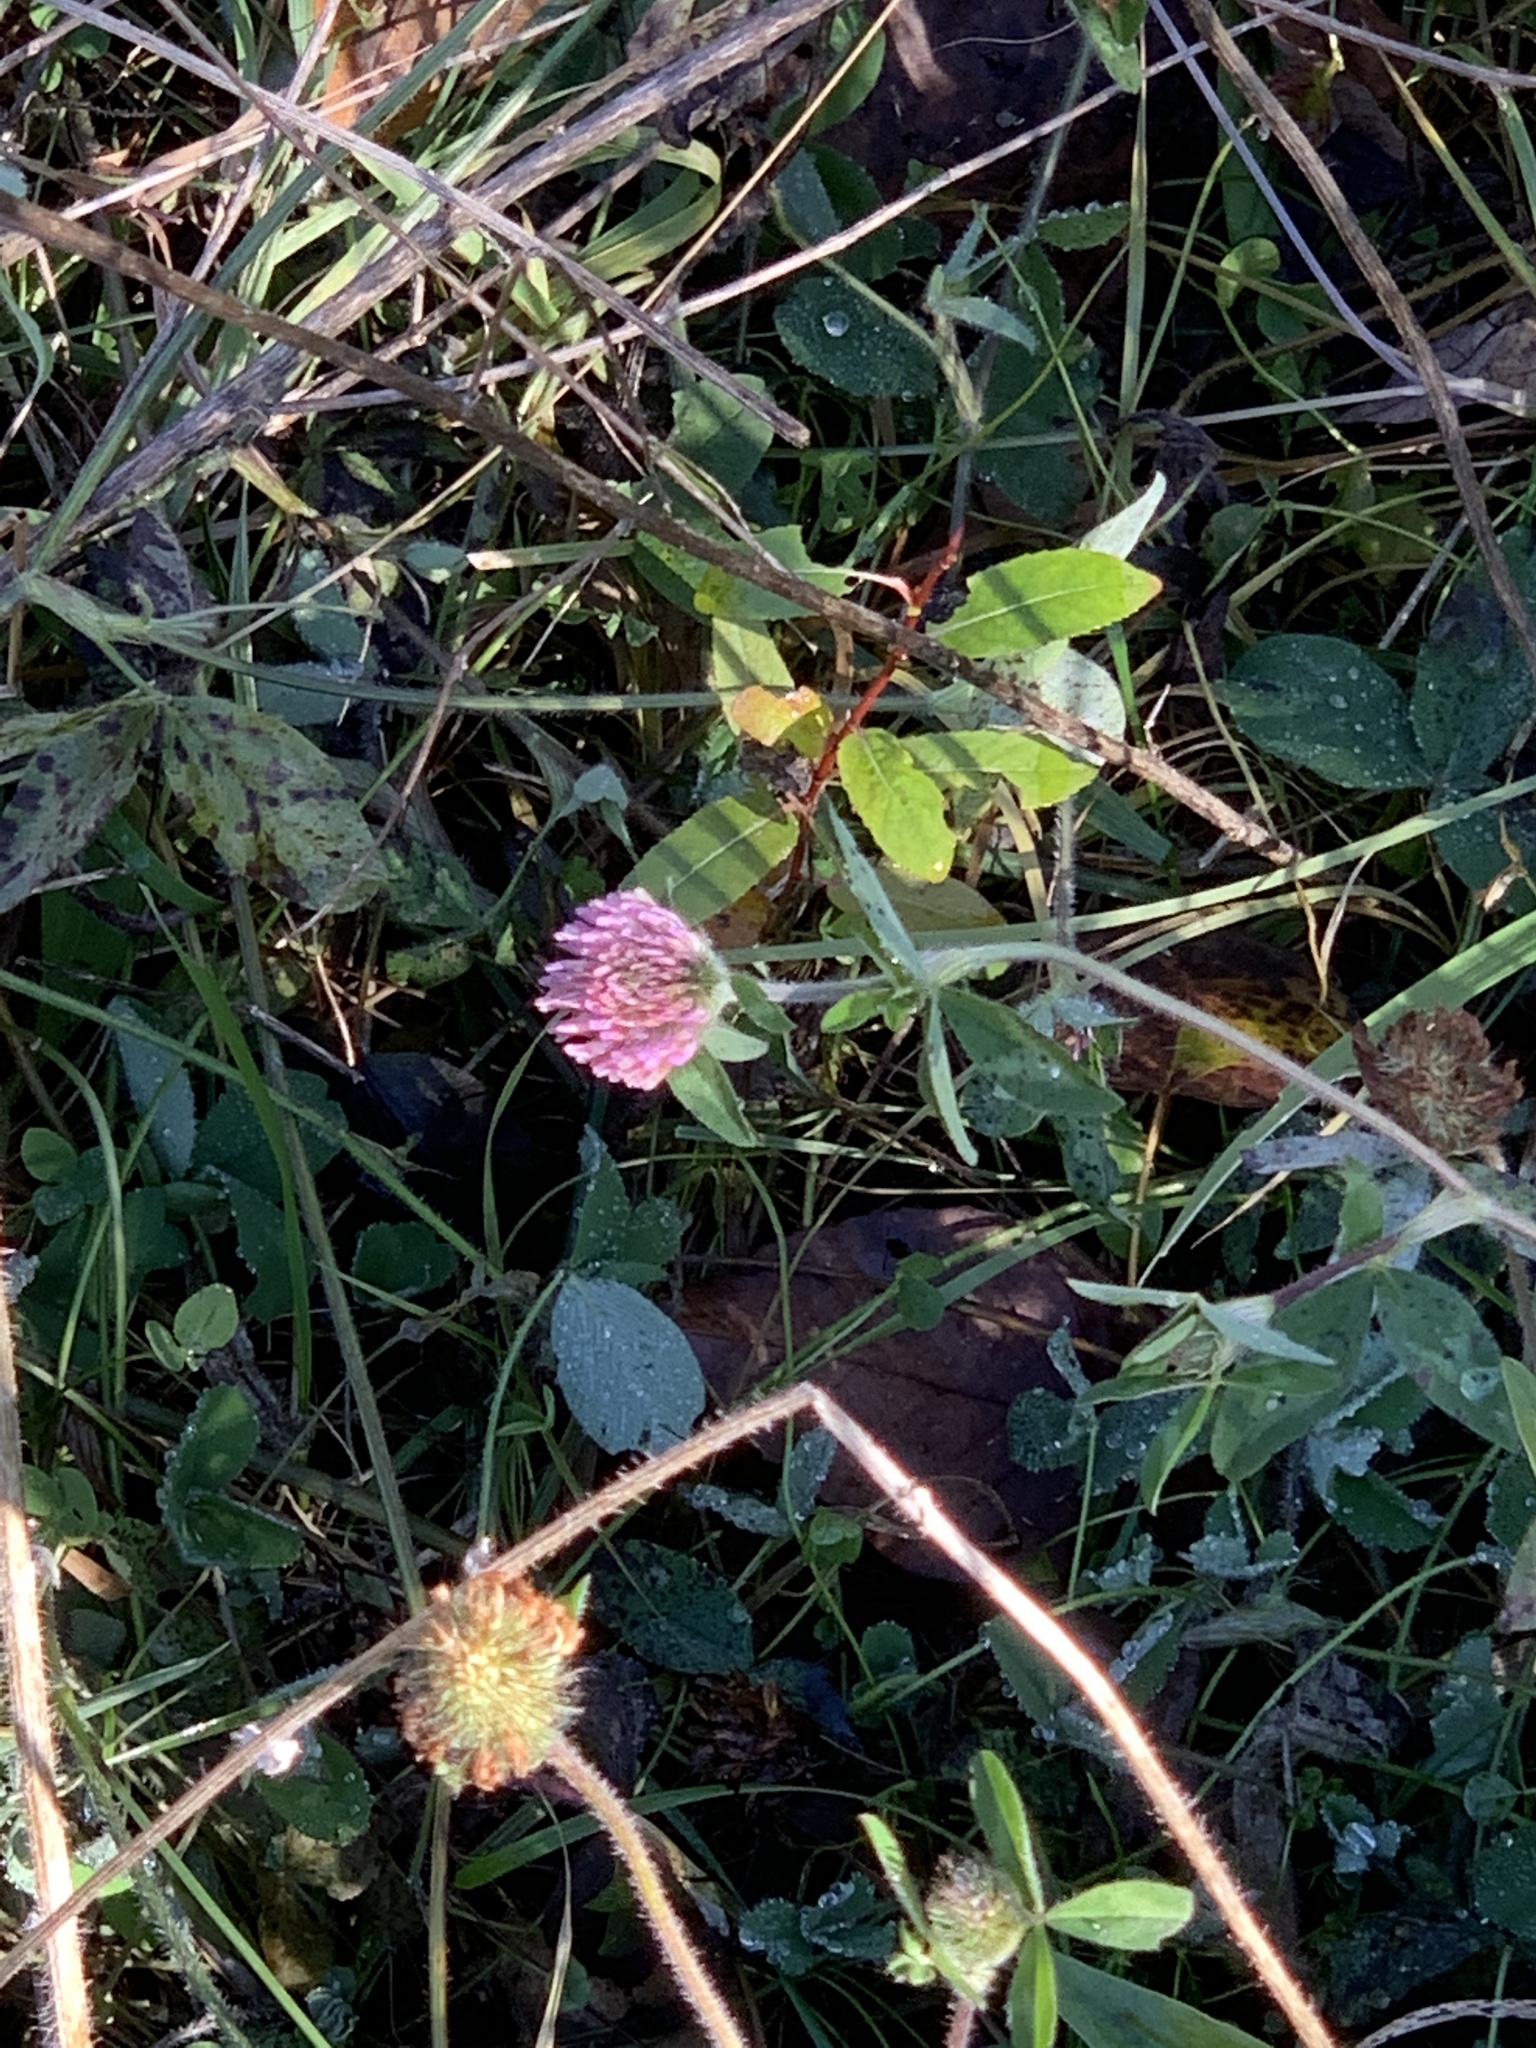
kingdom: Plantae
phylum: Tracheophyta
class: Magnoliopsida
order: Fabales
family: Fabaceae
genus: Trifolium
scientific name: Trifolium pratense
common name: Red clover
